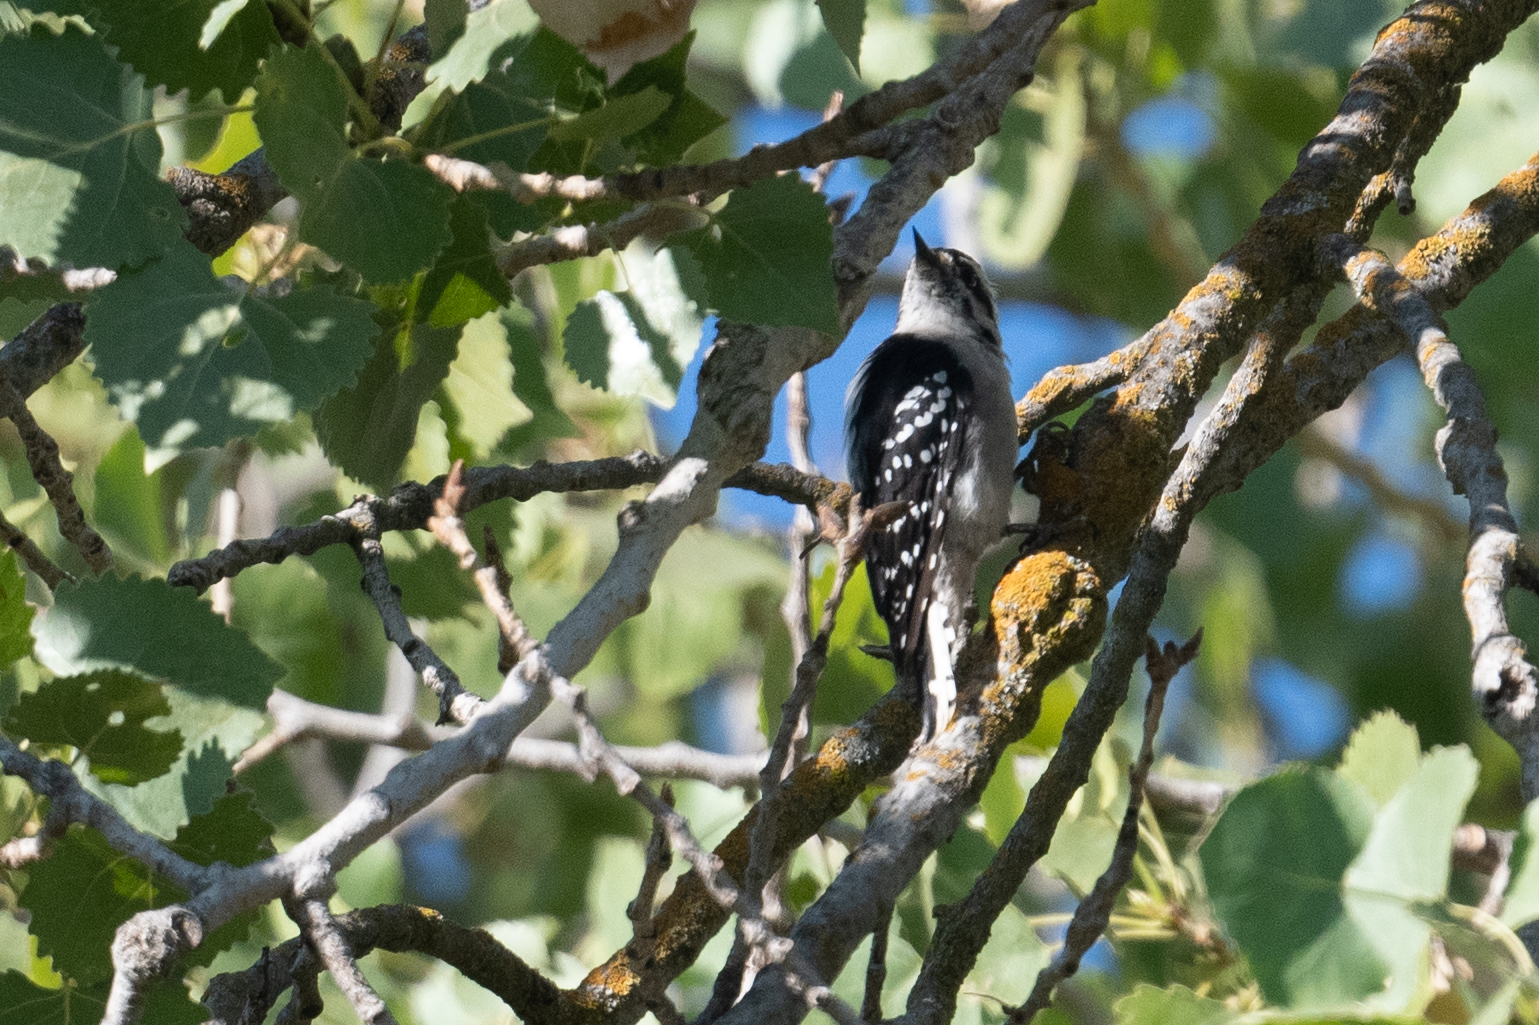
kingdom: Animalia
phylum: Chordata
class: Aves
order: Piciformes
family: Picidae
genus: Dryobates
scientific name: Dryobates pubescens
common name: Downy woodpecker
